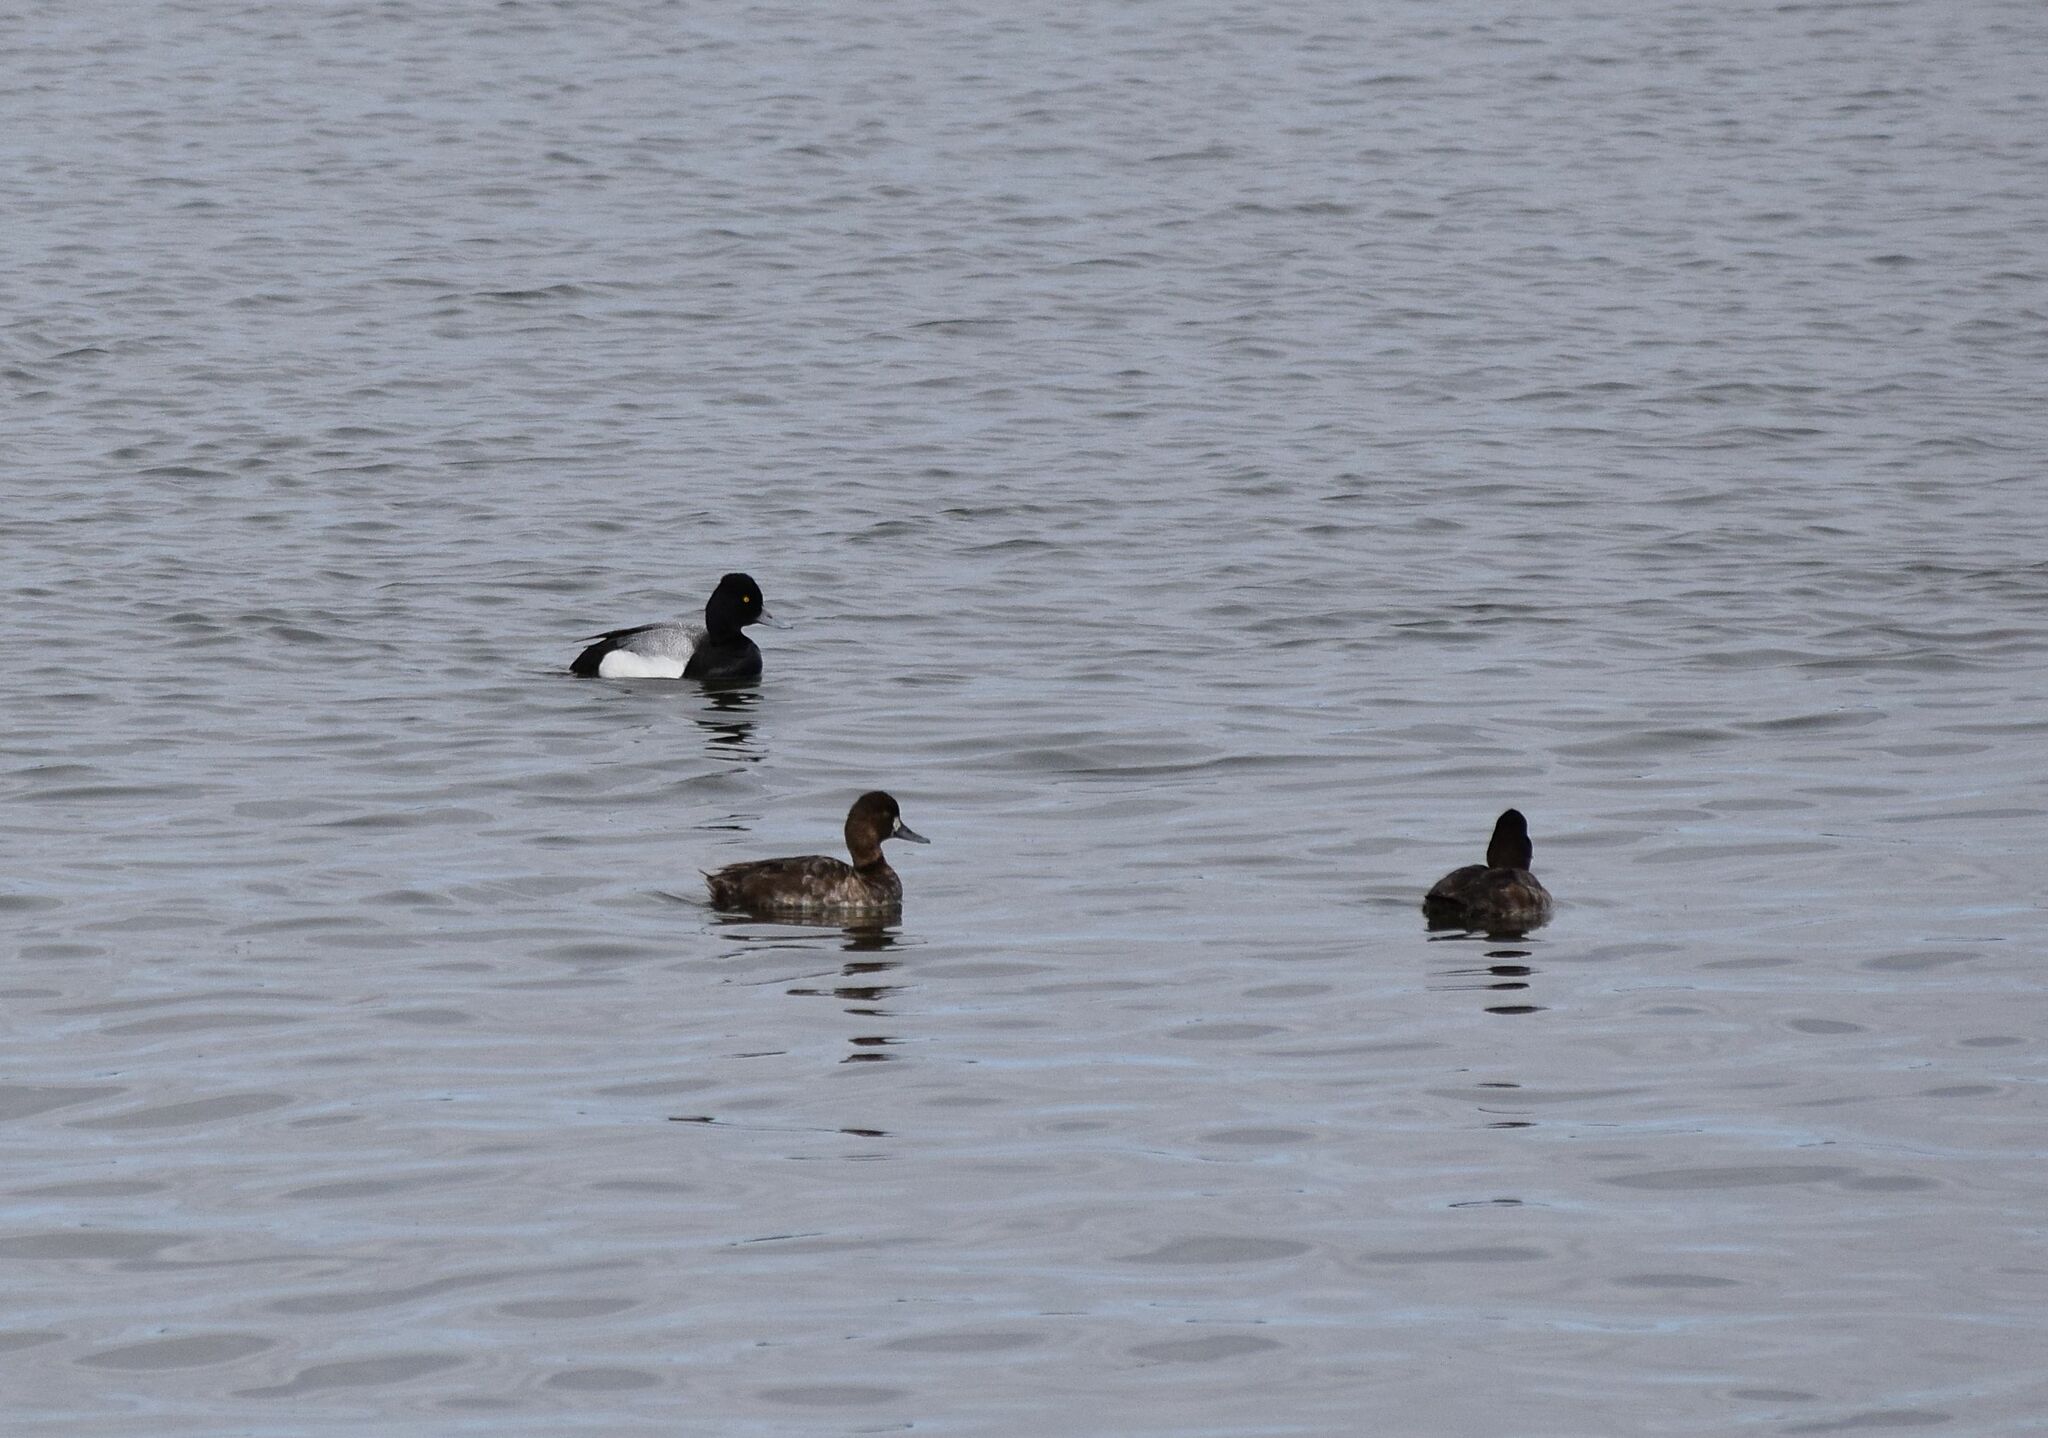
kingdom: Animalia
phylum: Chordata
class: Aves
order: Anseriformes
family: Anatidae
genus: Aythya
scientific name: Aythya affinis
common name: Lesser scaup
